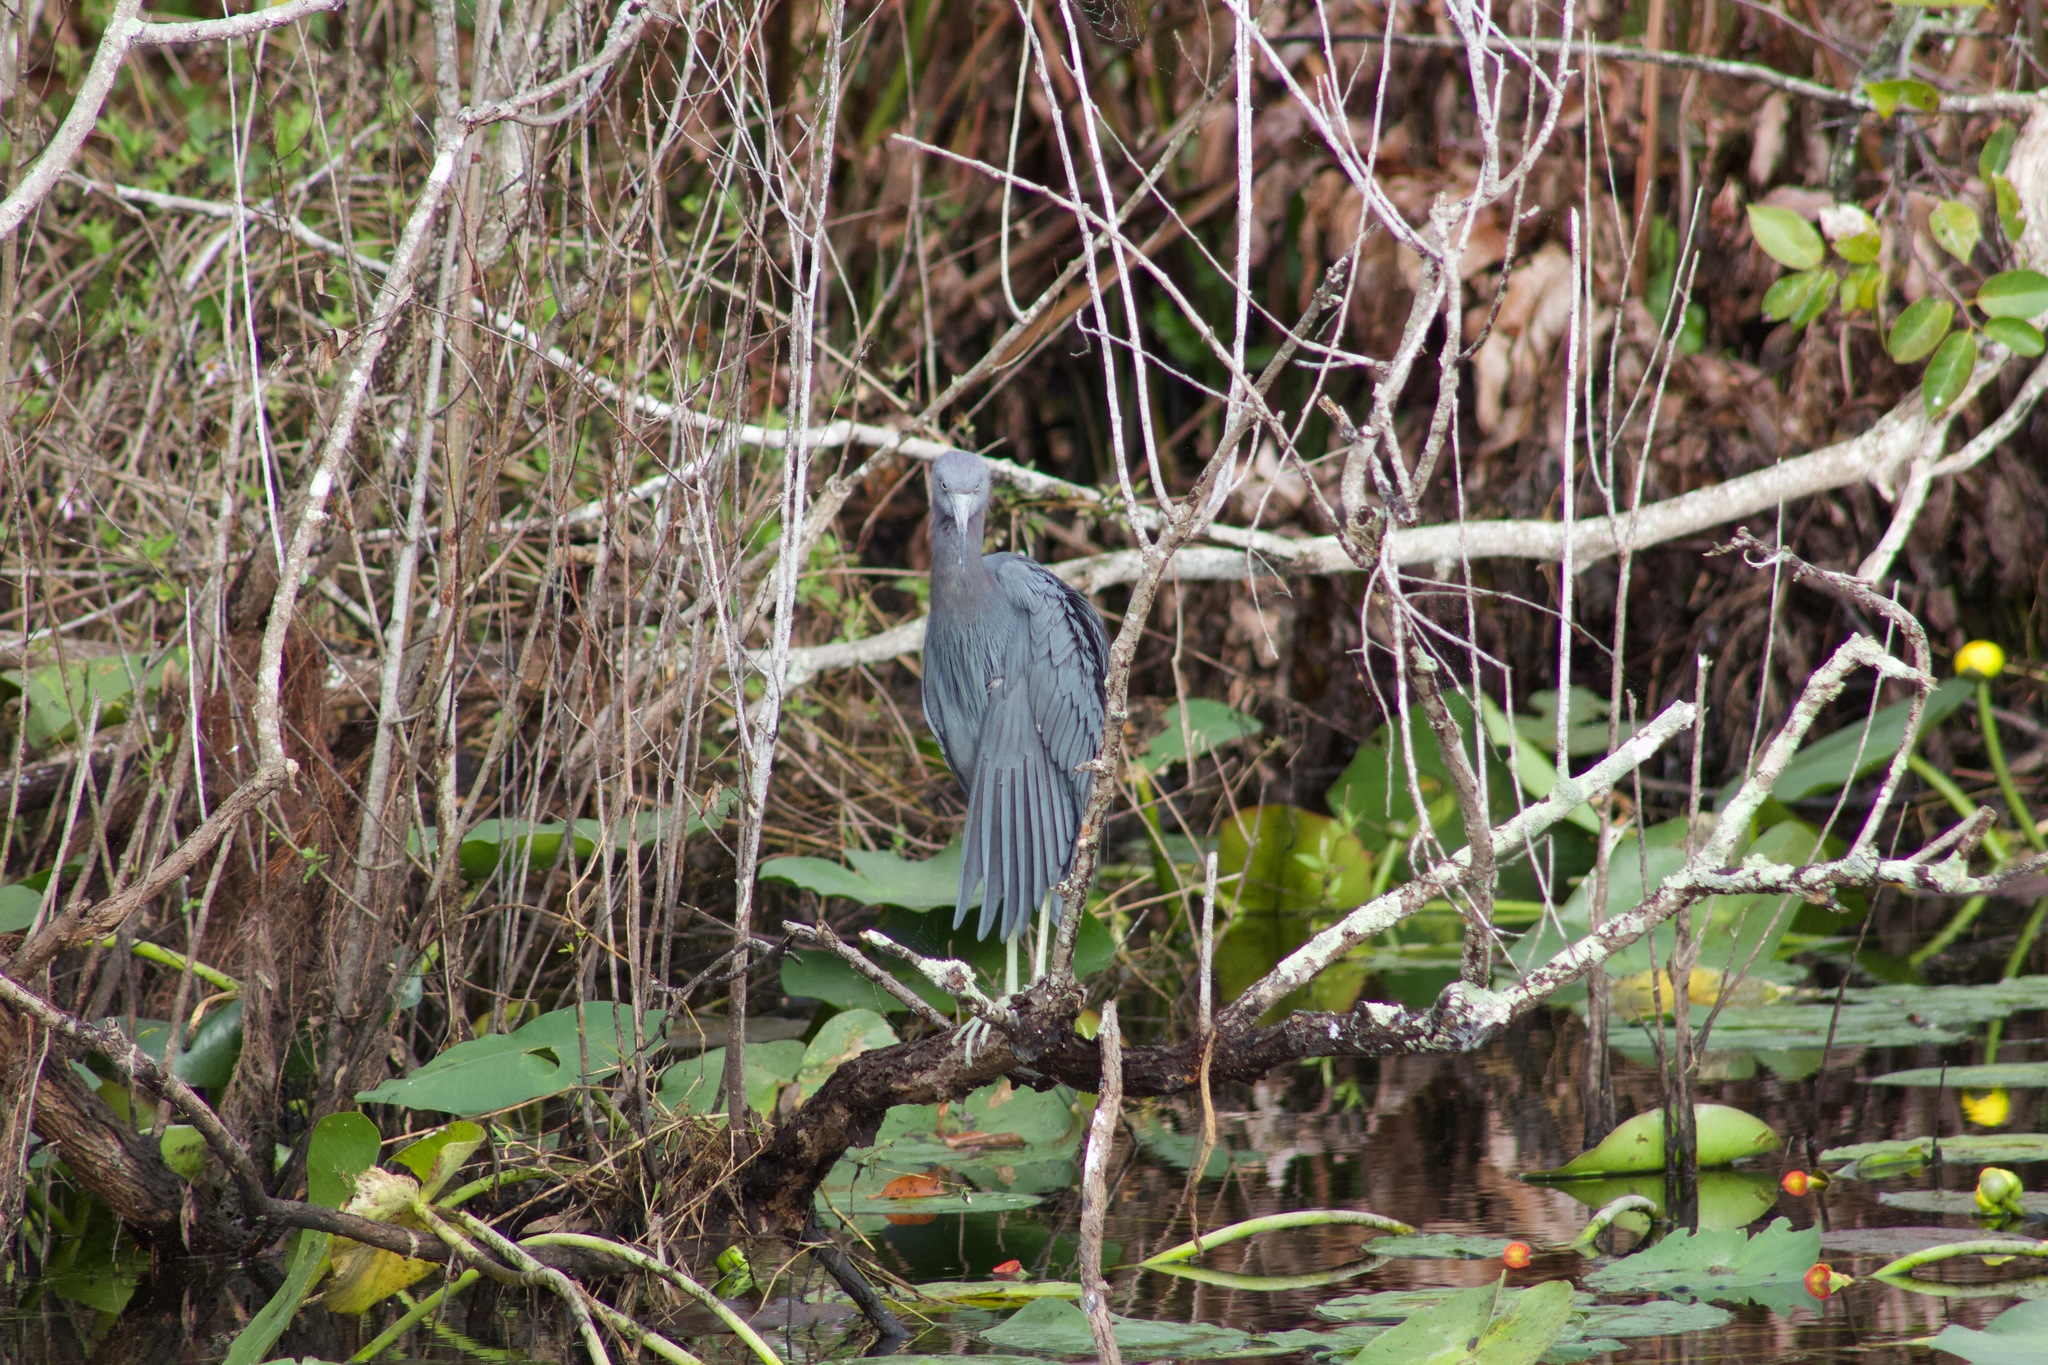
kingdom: Animalia
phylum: Chordata
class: Aves
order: Pelecaniformes
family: Ardeidae
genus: Egretta
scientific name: Egretta caerulea
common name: Little blue heron
